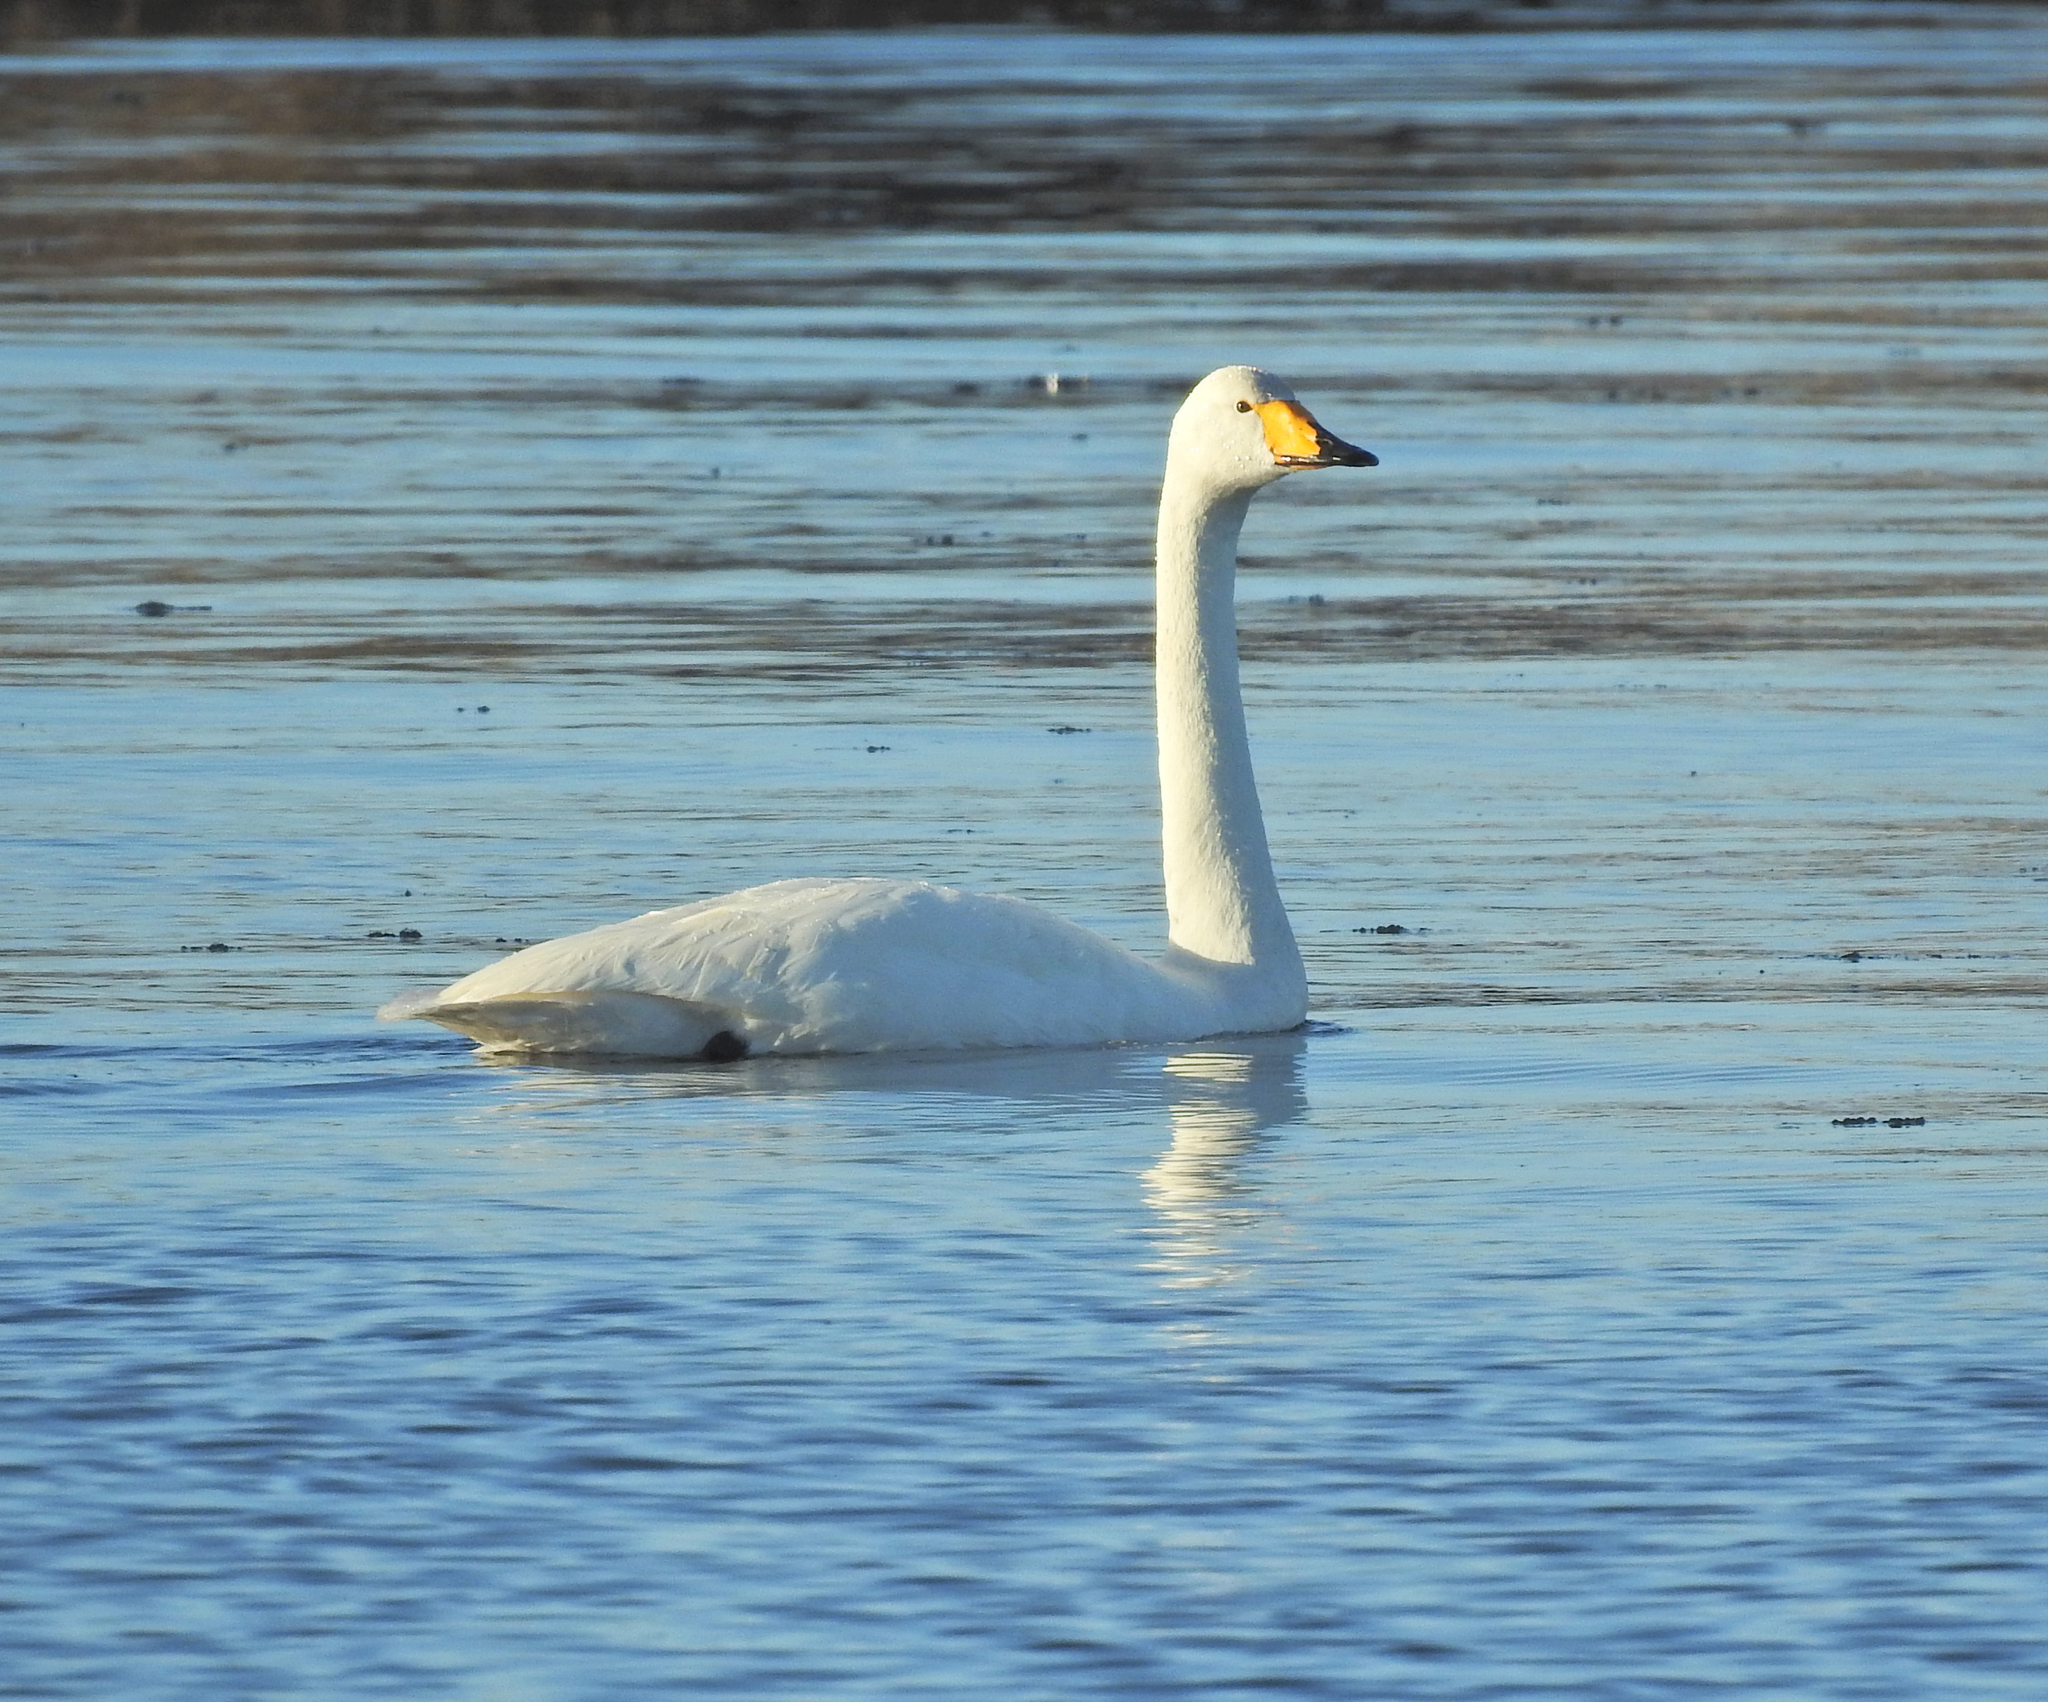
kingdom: Animalia
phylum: Chordata
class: Aves
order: Anseriformes
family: Anatidae
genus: Cygnus
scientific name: Cygnus cygnus
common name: Whooper swan
